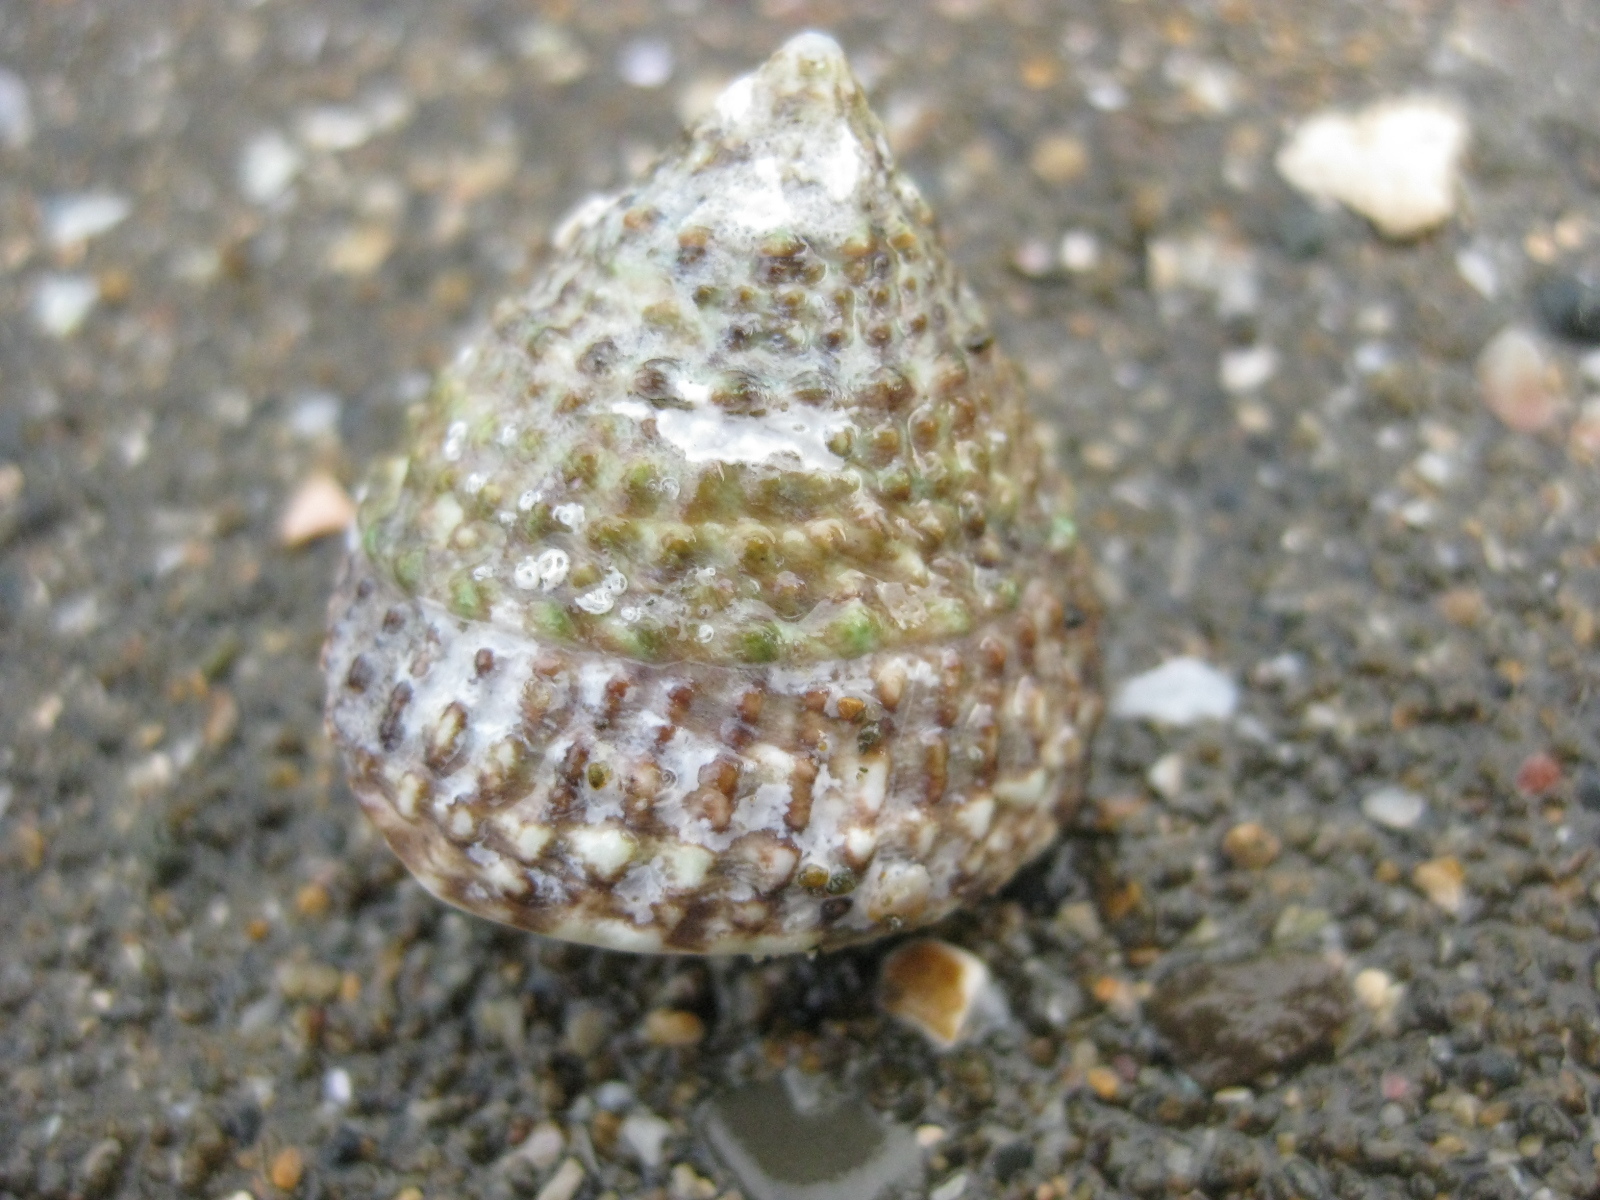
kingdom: Animalia
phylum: Mollusca
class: Gastropoda
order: Trochida
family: Trochidae
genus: Coelotrochus
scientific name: Coelotrochus viridis
